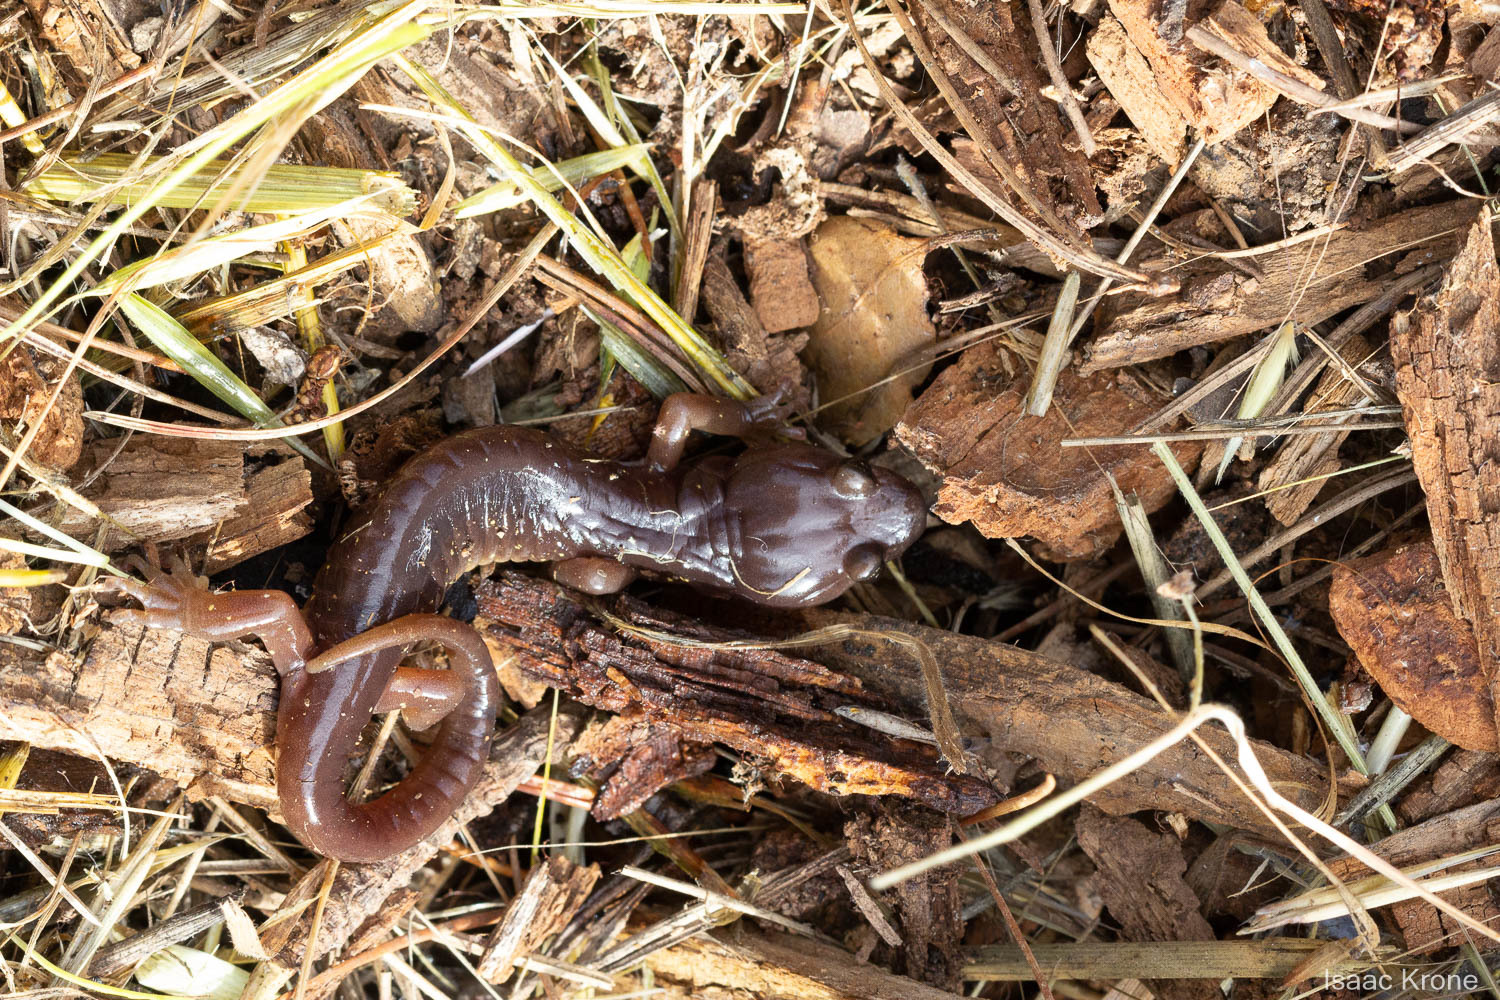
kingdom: Animalia
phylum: Chordata
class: Amphibia
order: Caudata
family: Plethodontidae
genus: Aneides
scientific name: Aneides lugubris
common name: Arboreal salamander
